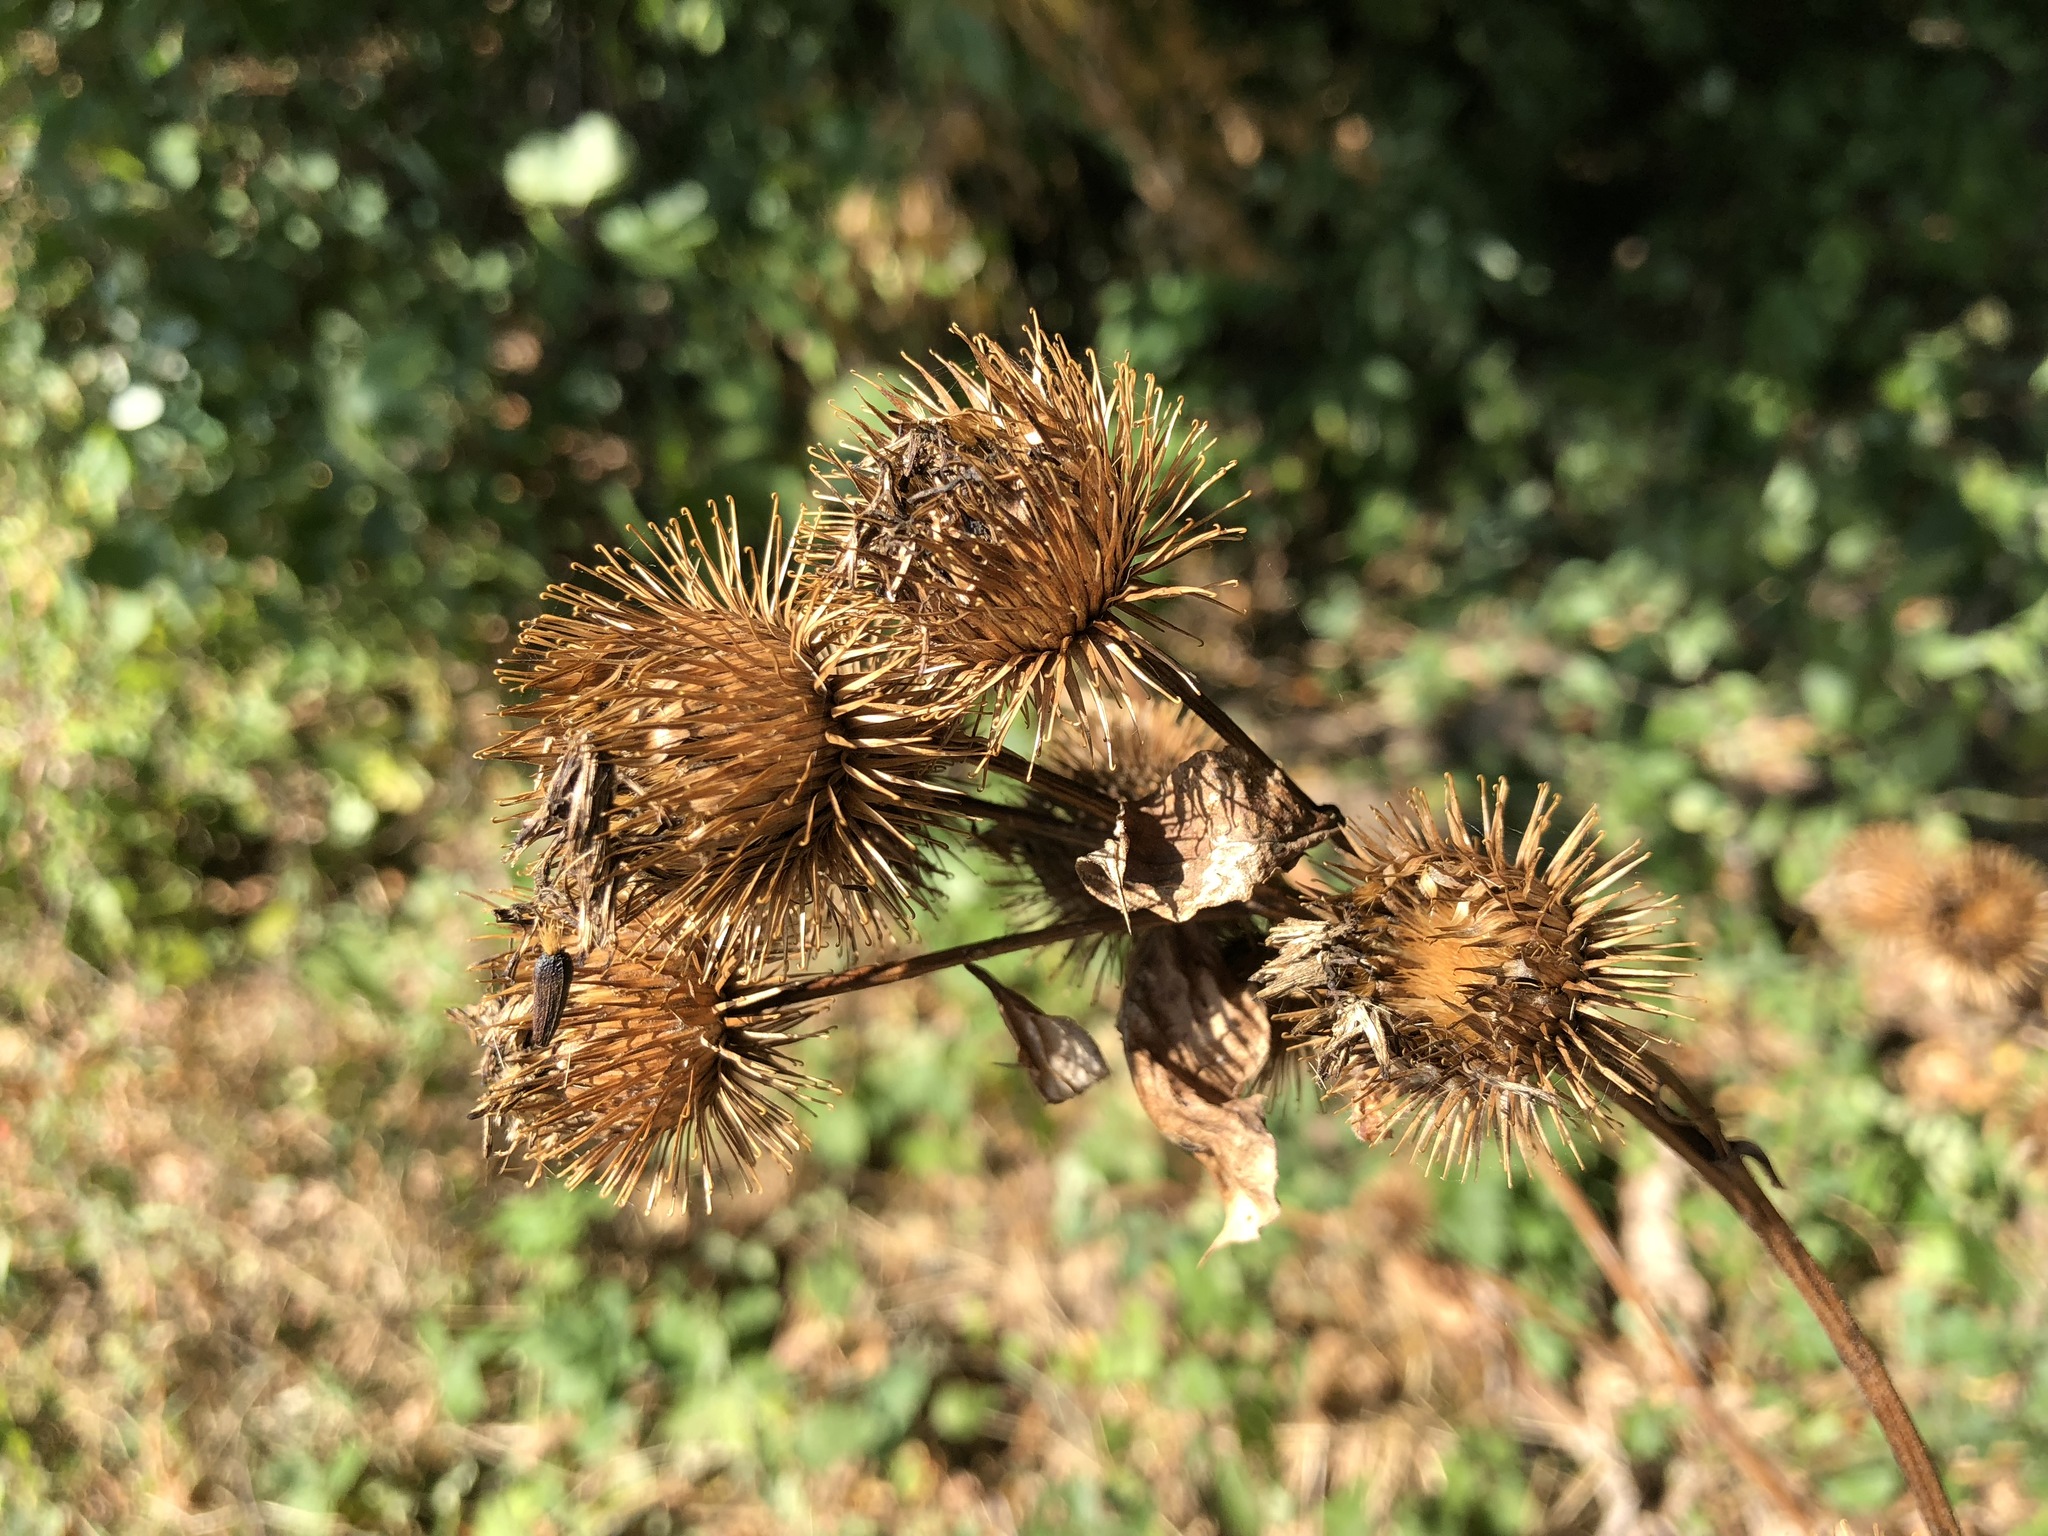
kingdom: Plantae
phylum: Tracheophyta
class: Magnoliopsida
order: Asterales
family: Asteraceae
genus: Arctium
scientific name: Arctium lappa
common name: Greater burdock
